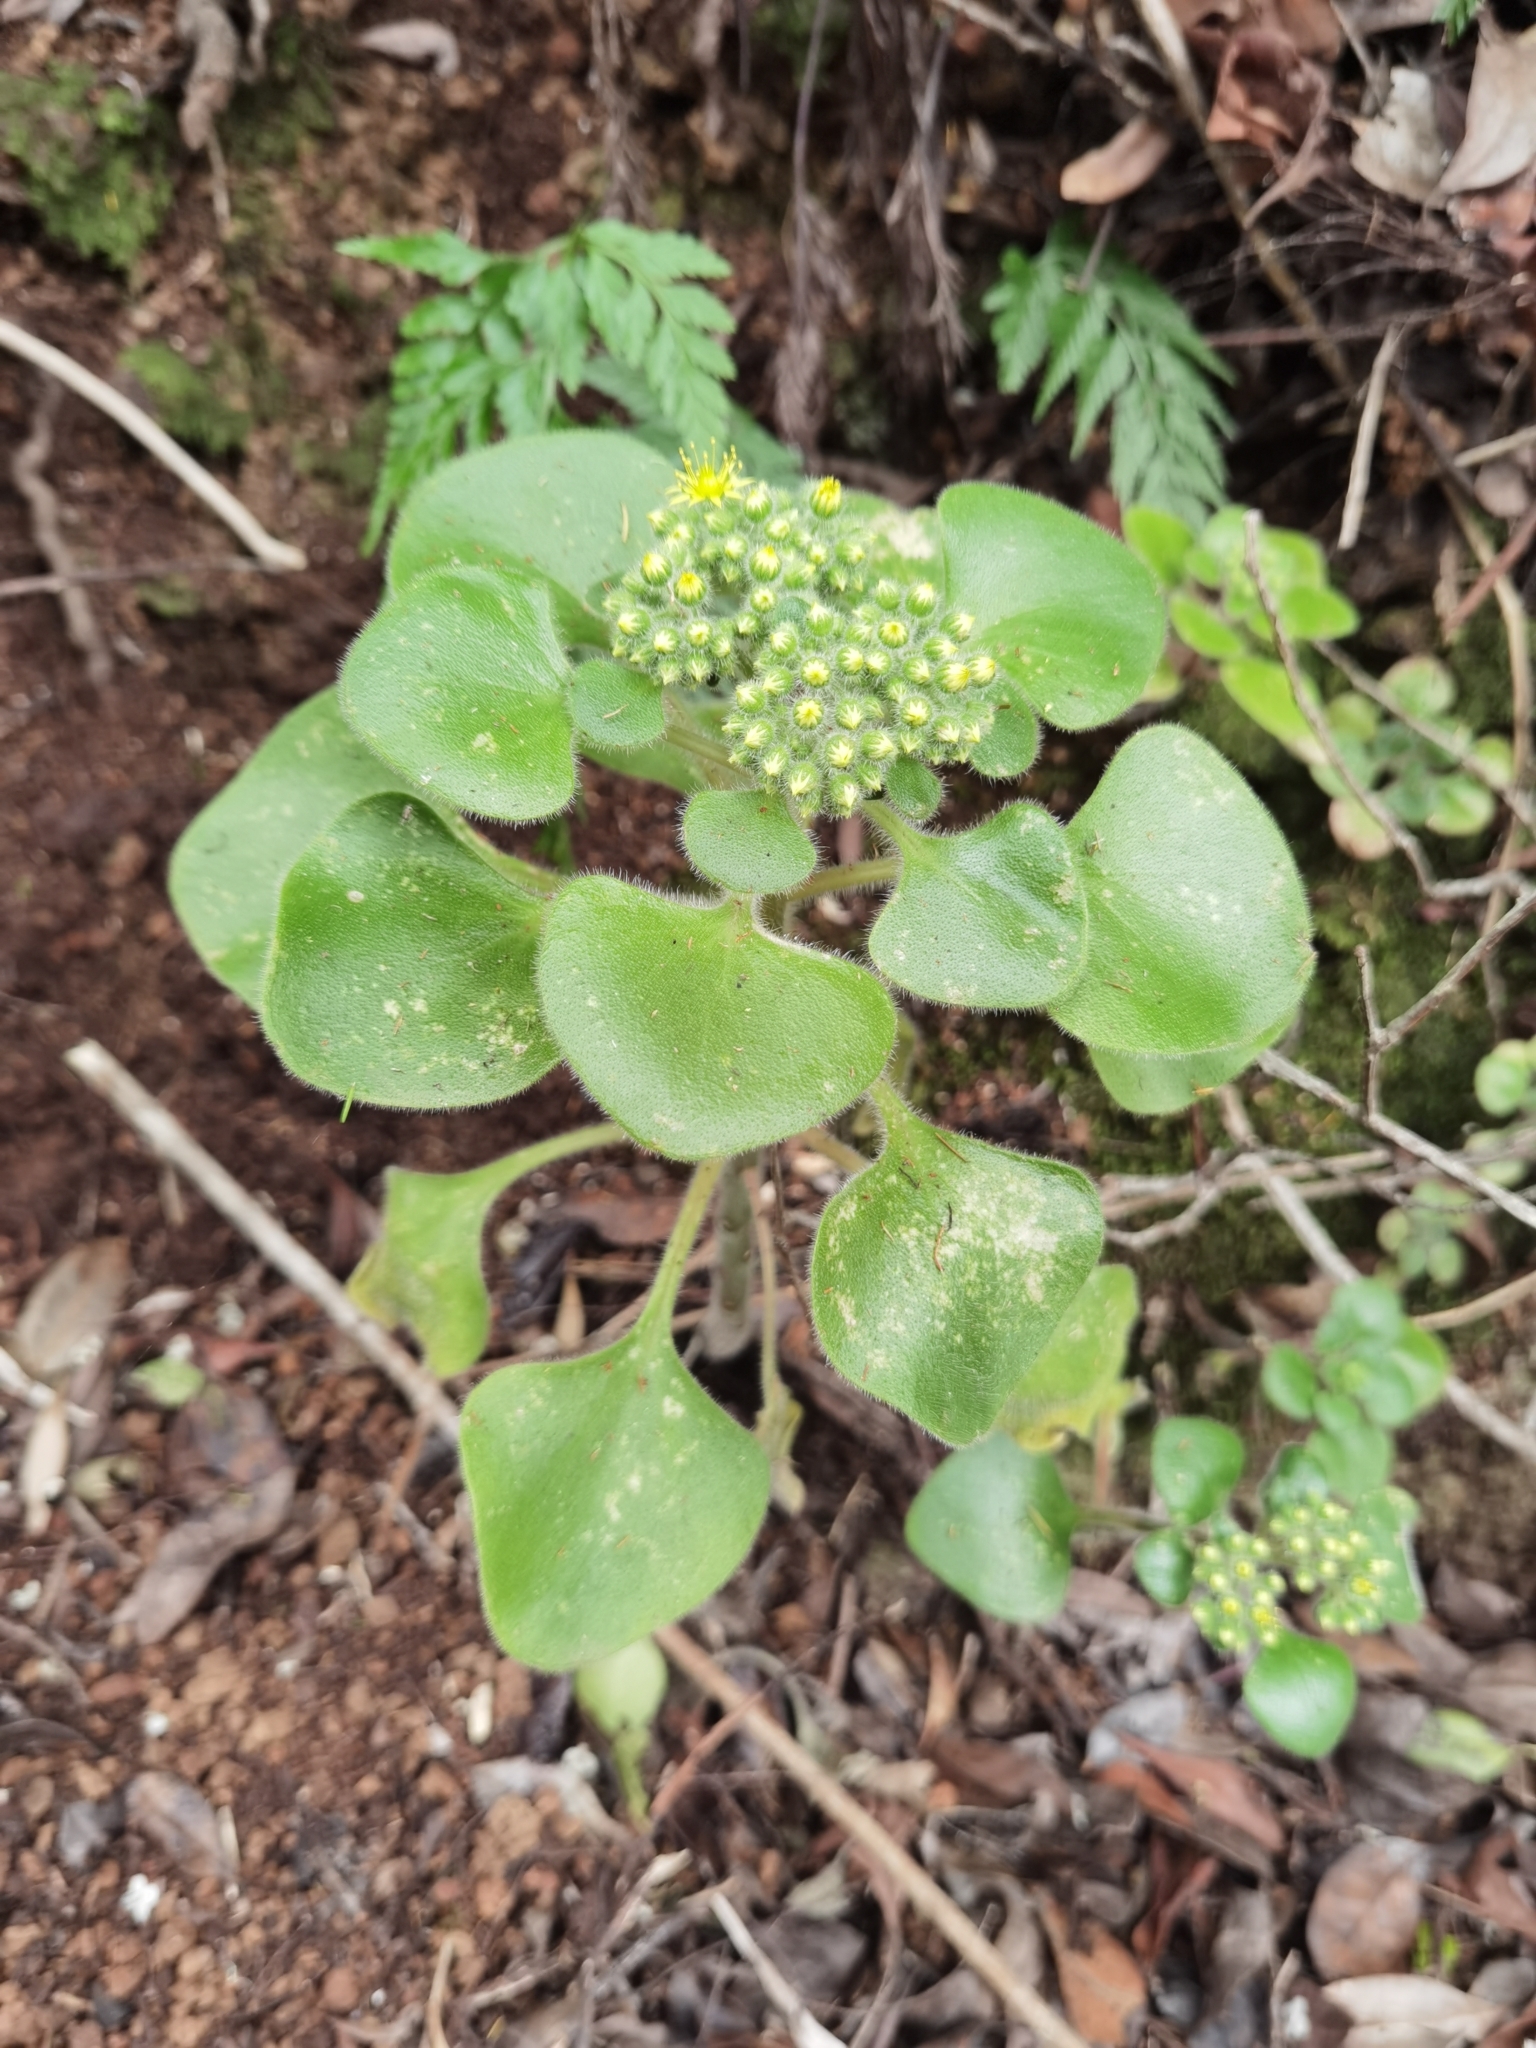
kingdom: Plantae
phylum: Tracheophyta
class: Magnoliopsida
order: Saxifragales
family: Crassulaceae
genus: Aichryson
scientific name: Aichryson laxum
